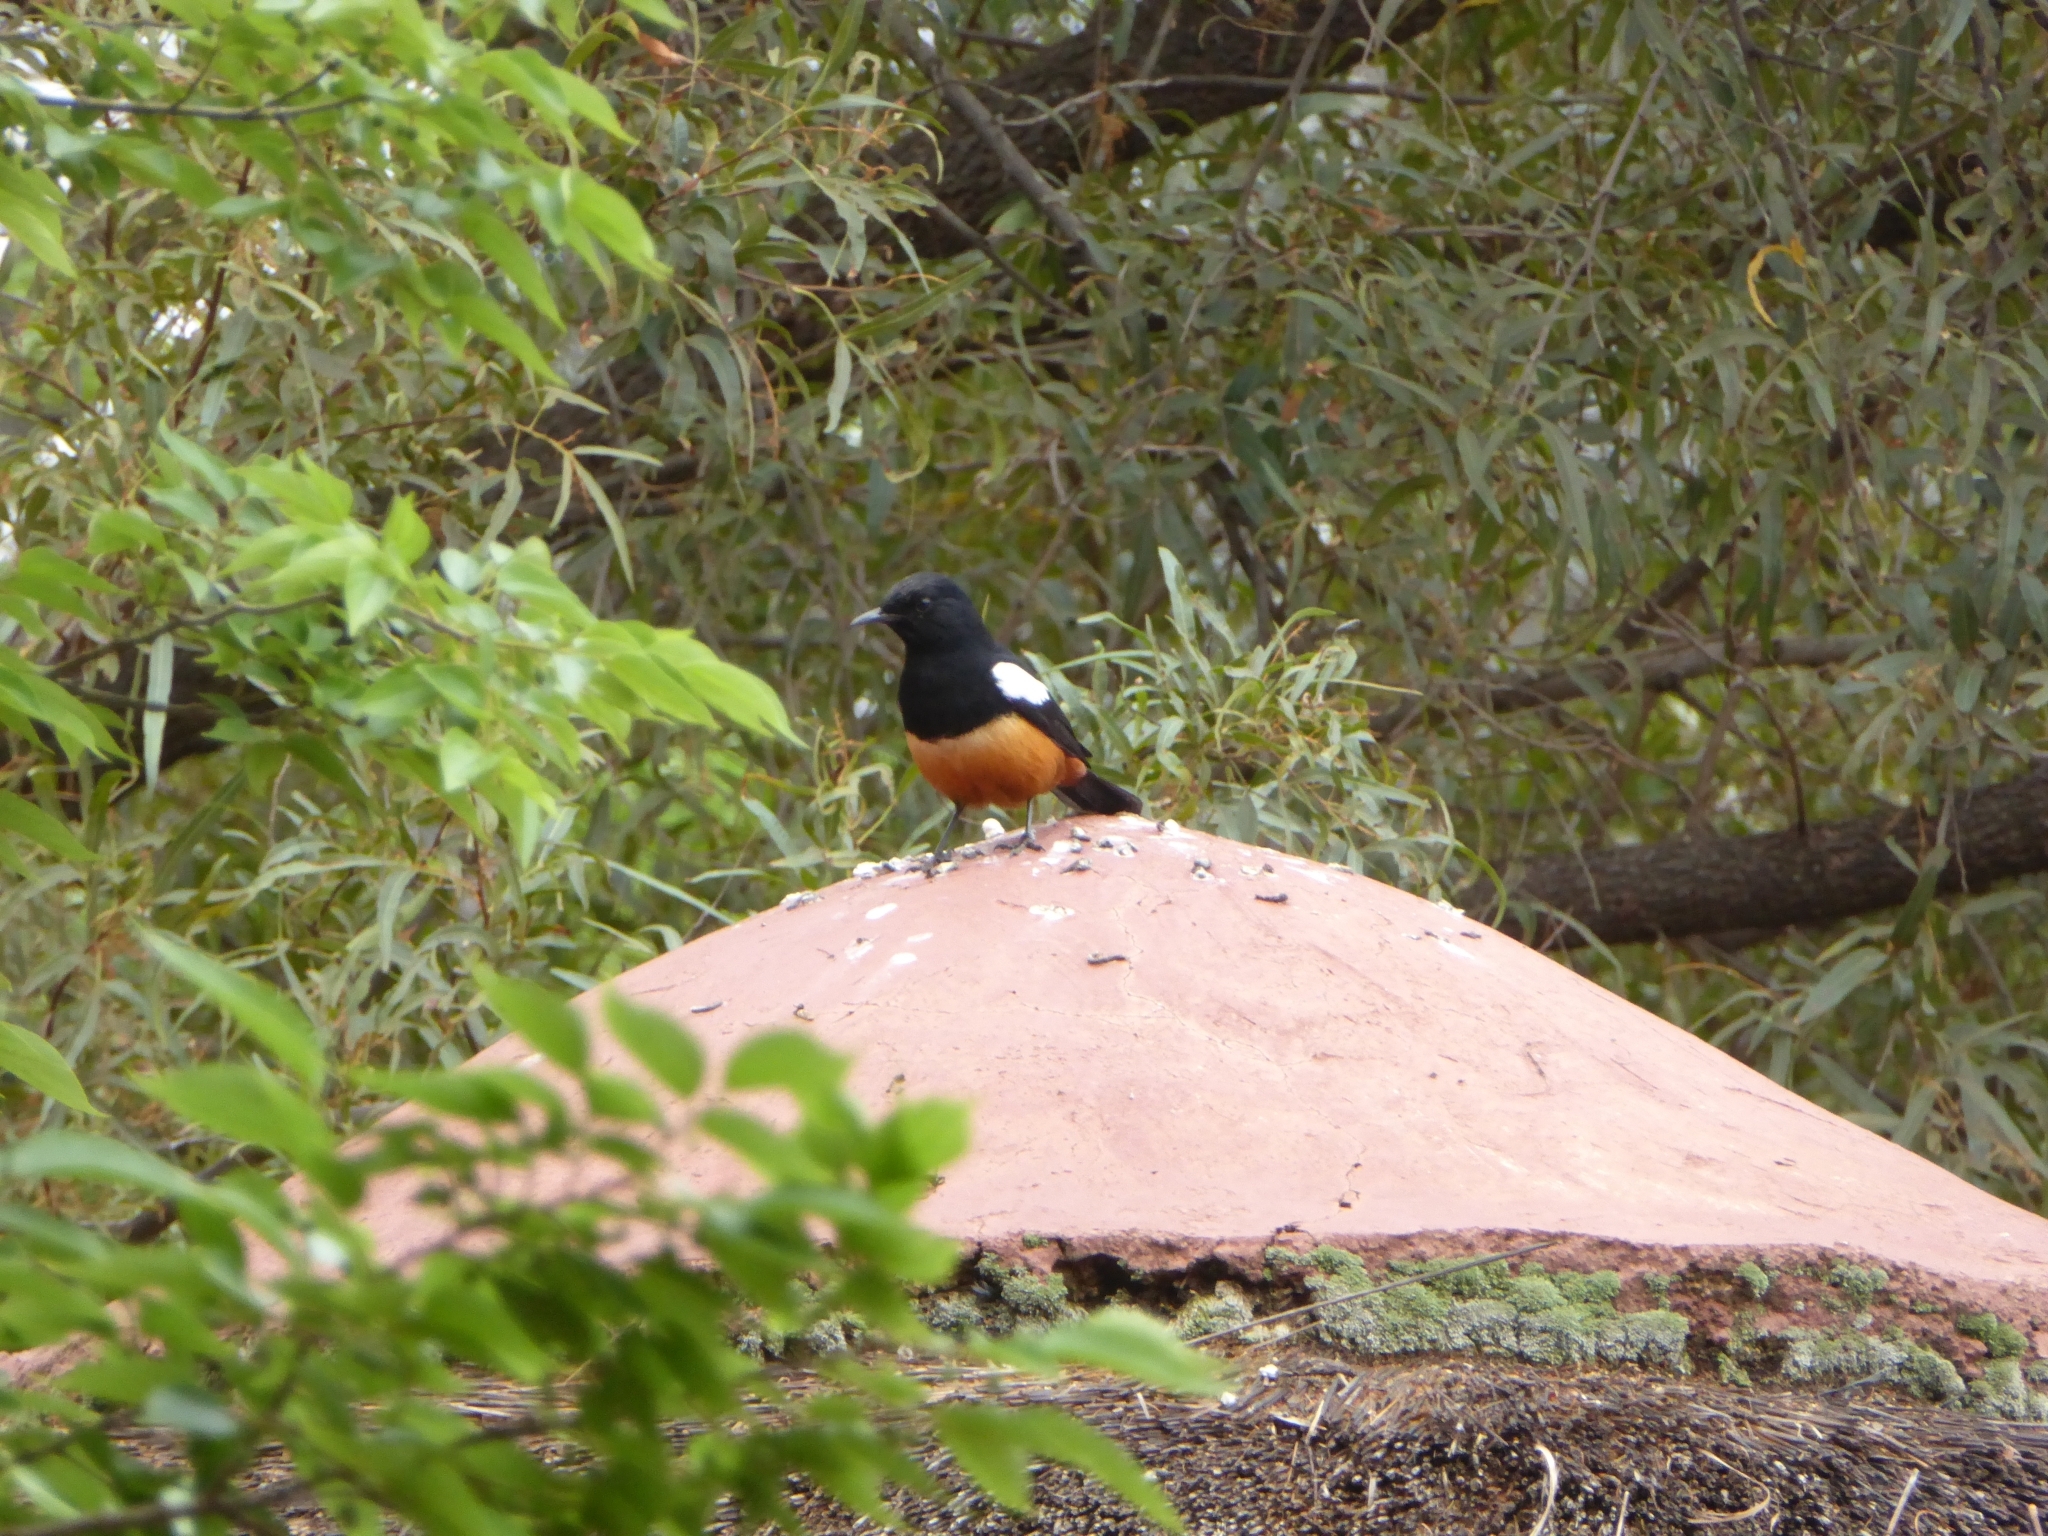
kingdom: Animalia
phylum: Chordata
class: Aves
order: Passeriformes
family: Muscicapidae
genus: Thamnolaea
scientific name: Thamnolaea cinnamomeiventris
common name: Mocking cliff chat
